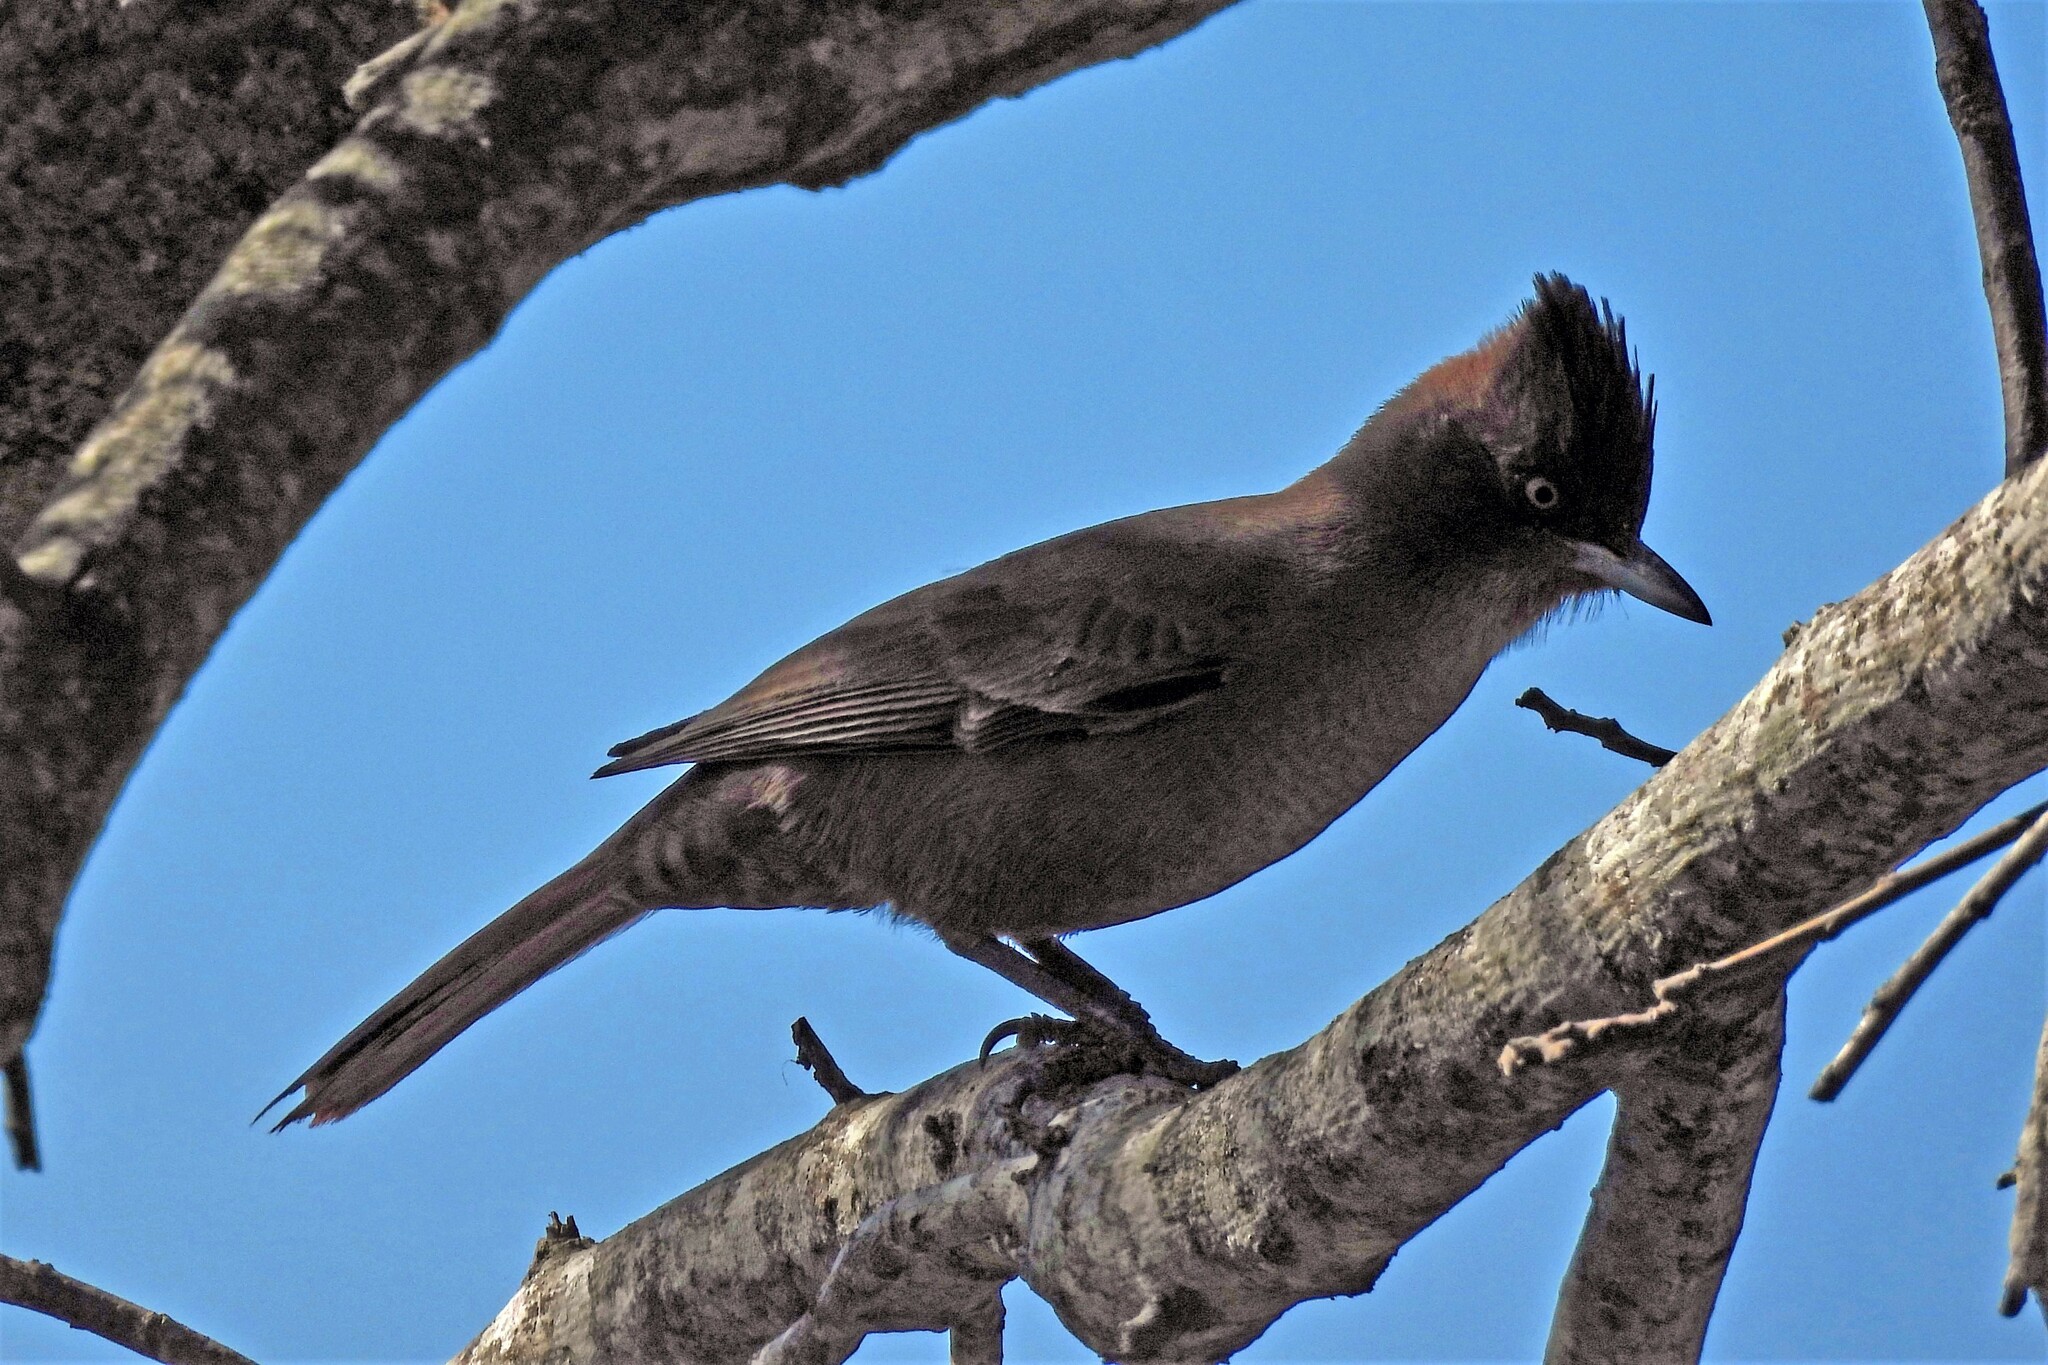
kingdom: Animalia
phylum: Chordata
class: Aves
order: Passeriformes
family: Furnariidae
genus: Pseudoseisura
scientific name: Pseudoseisura lophotes
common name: Brown cacholote
